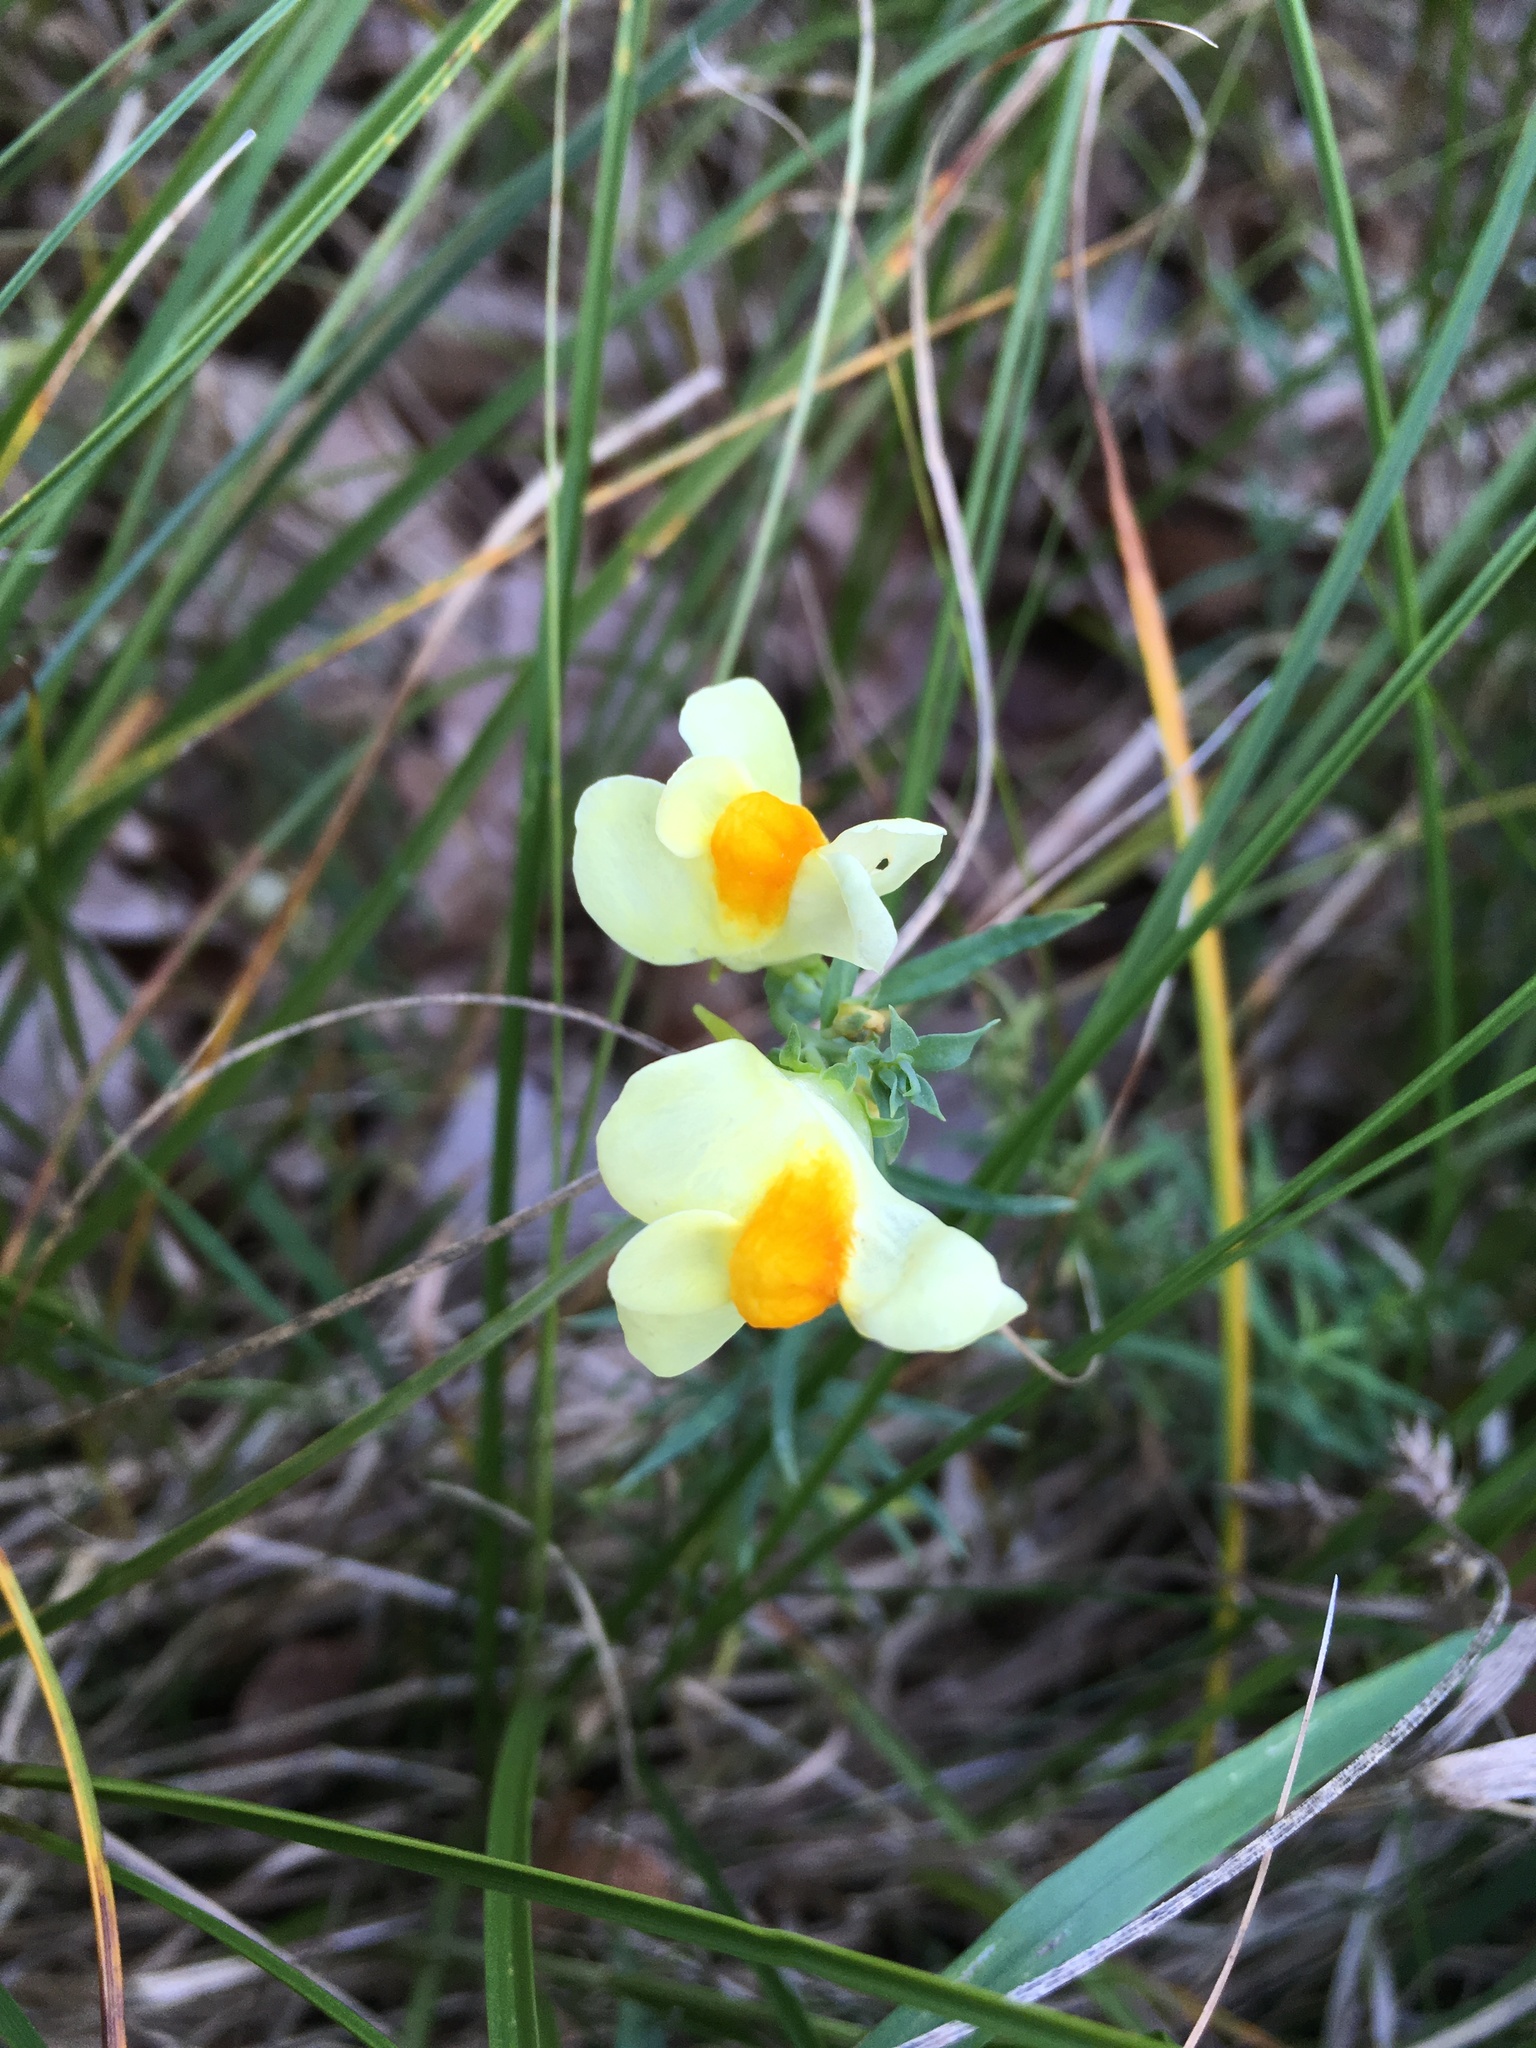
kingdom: Plantae
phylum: Tracheophyta
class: Magnoliopsida
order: Lamiales
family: Plantaginaceae
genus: Linaria
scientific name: Linaria vulgaris
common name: Butter and eggs
